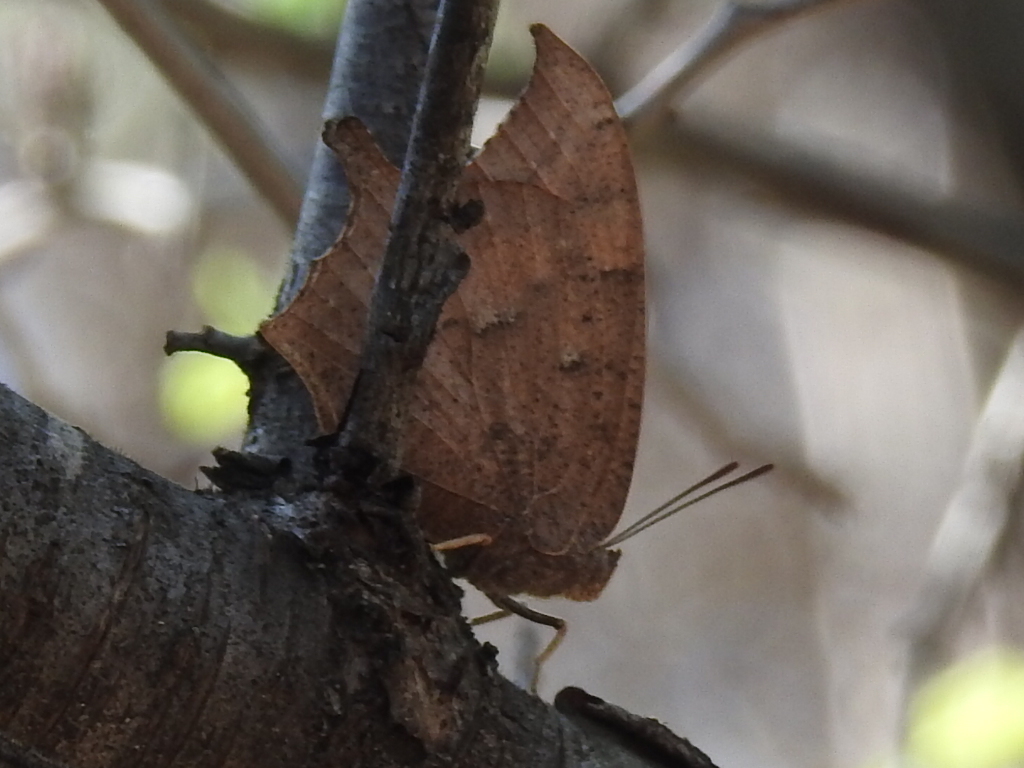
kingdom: Animalia
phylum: Arthropoda
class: Insecta
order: Lepidoptera
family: Nymphalidae
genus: Anaea
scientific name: Anaea andria
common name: Goatweed leafwing
